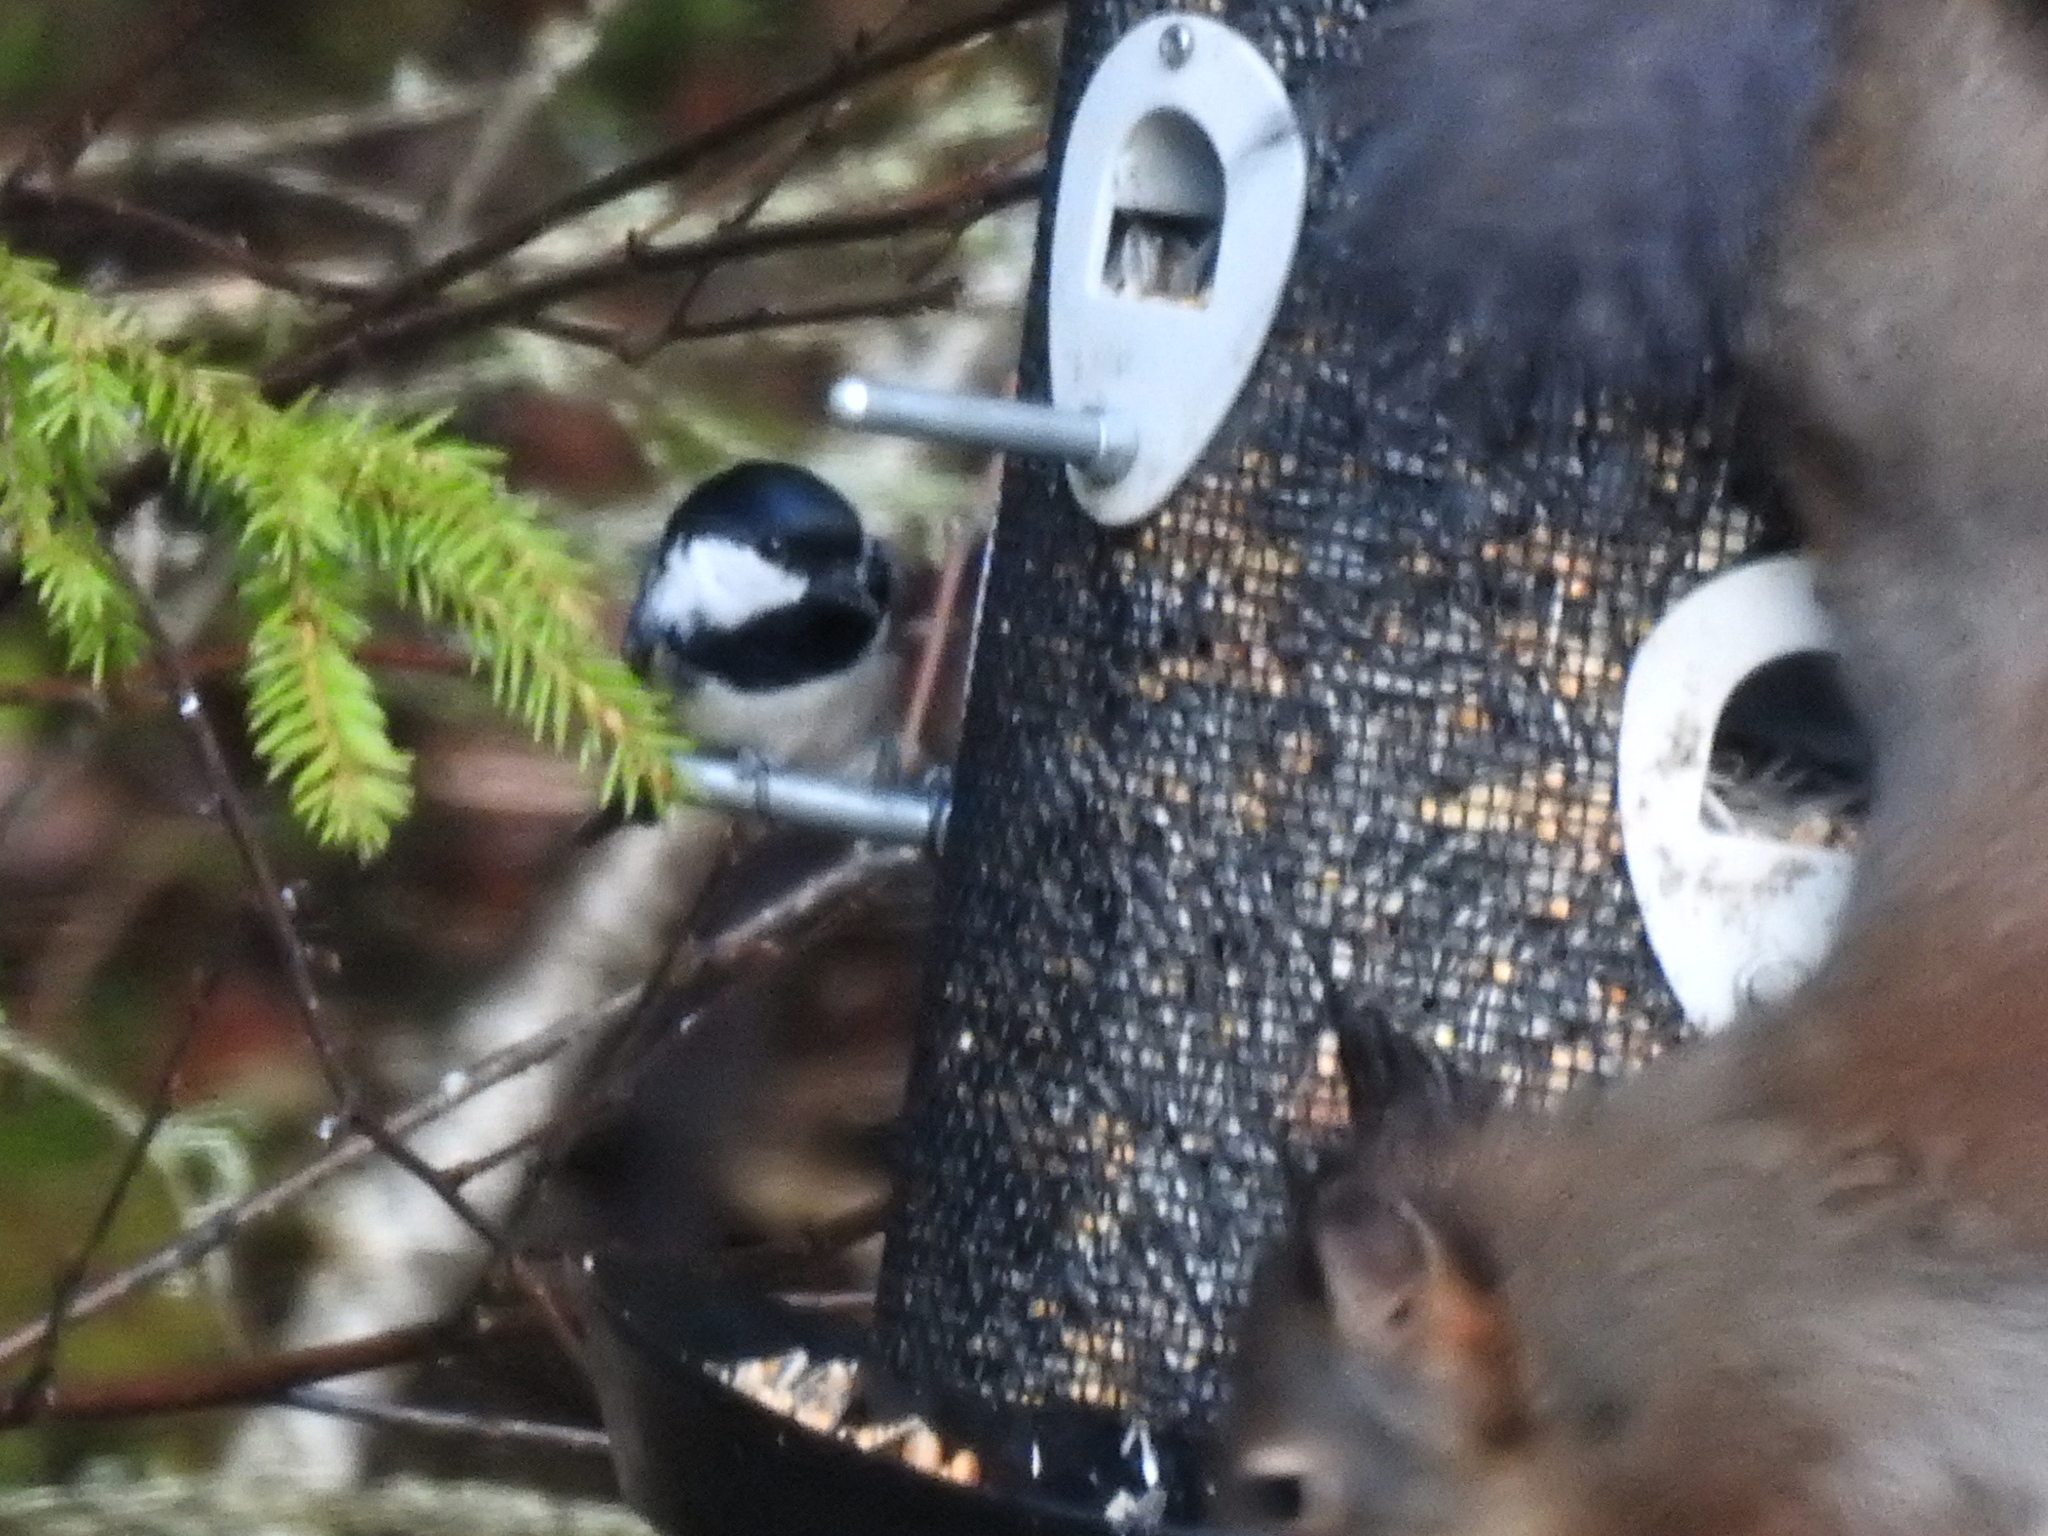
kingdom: Animalia
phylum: Chordata
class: Aves
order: Passeriformes
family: Paridae
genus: Periparus
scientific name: Periparus ater
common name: Coal tit
